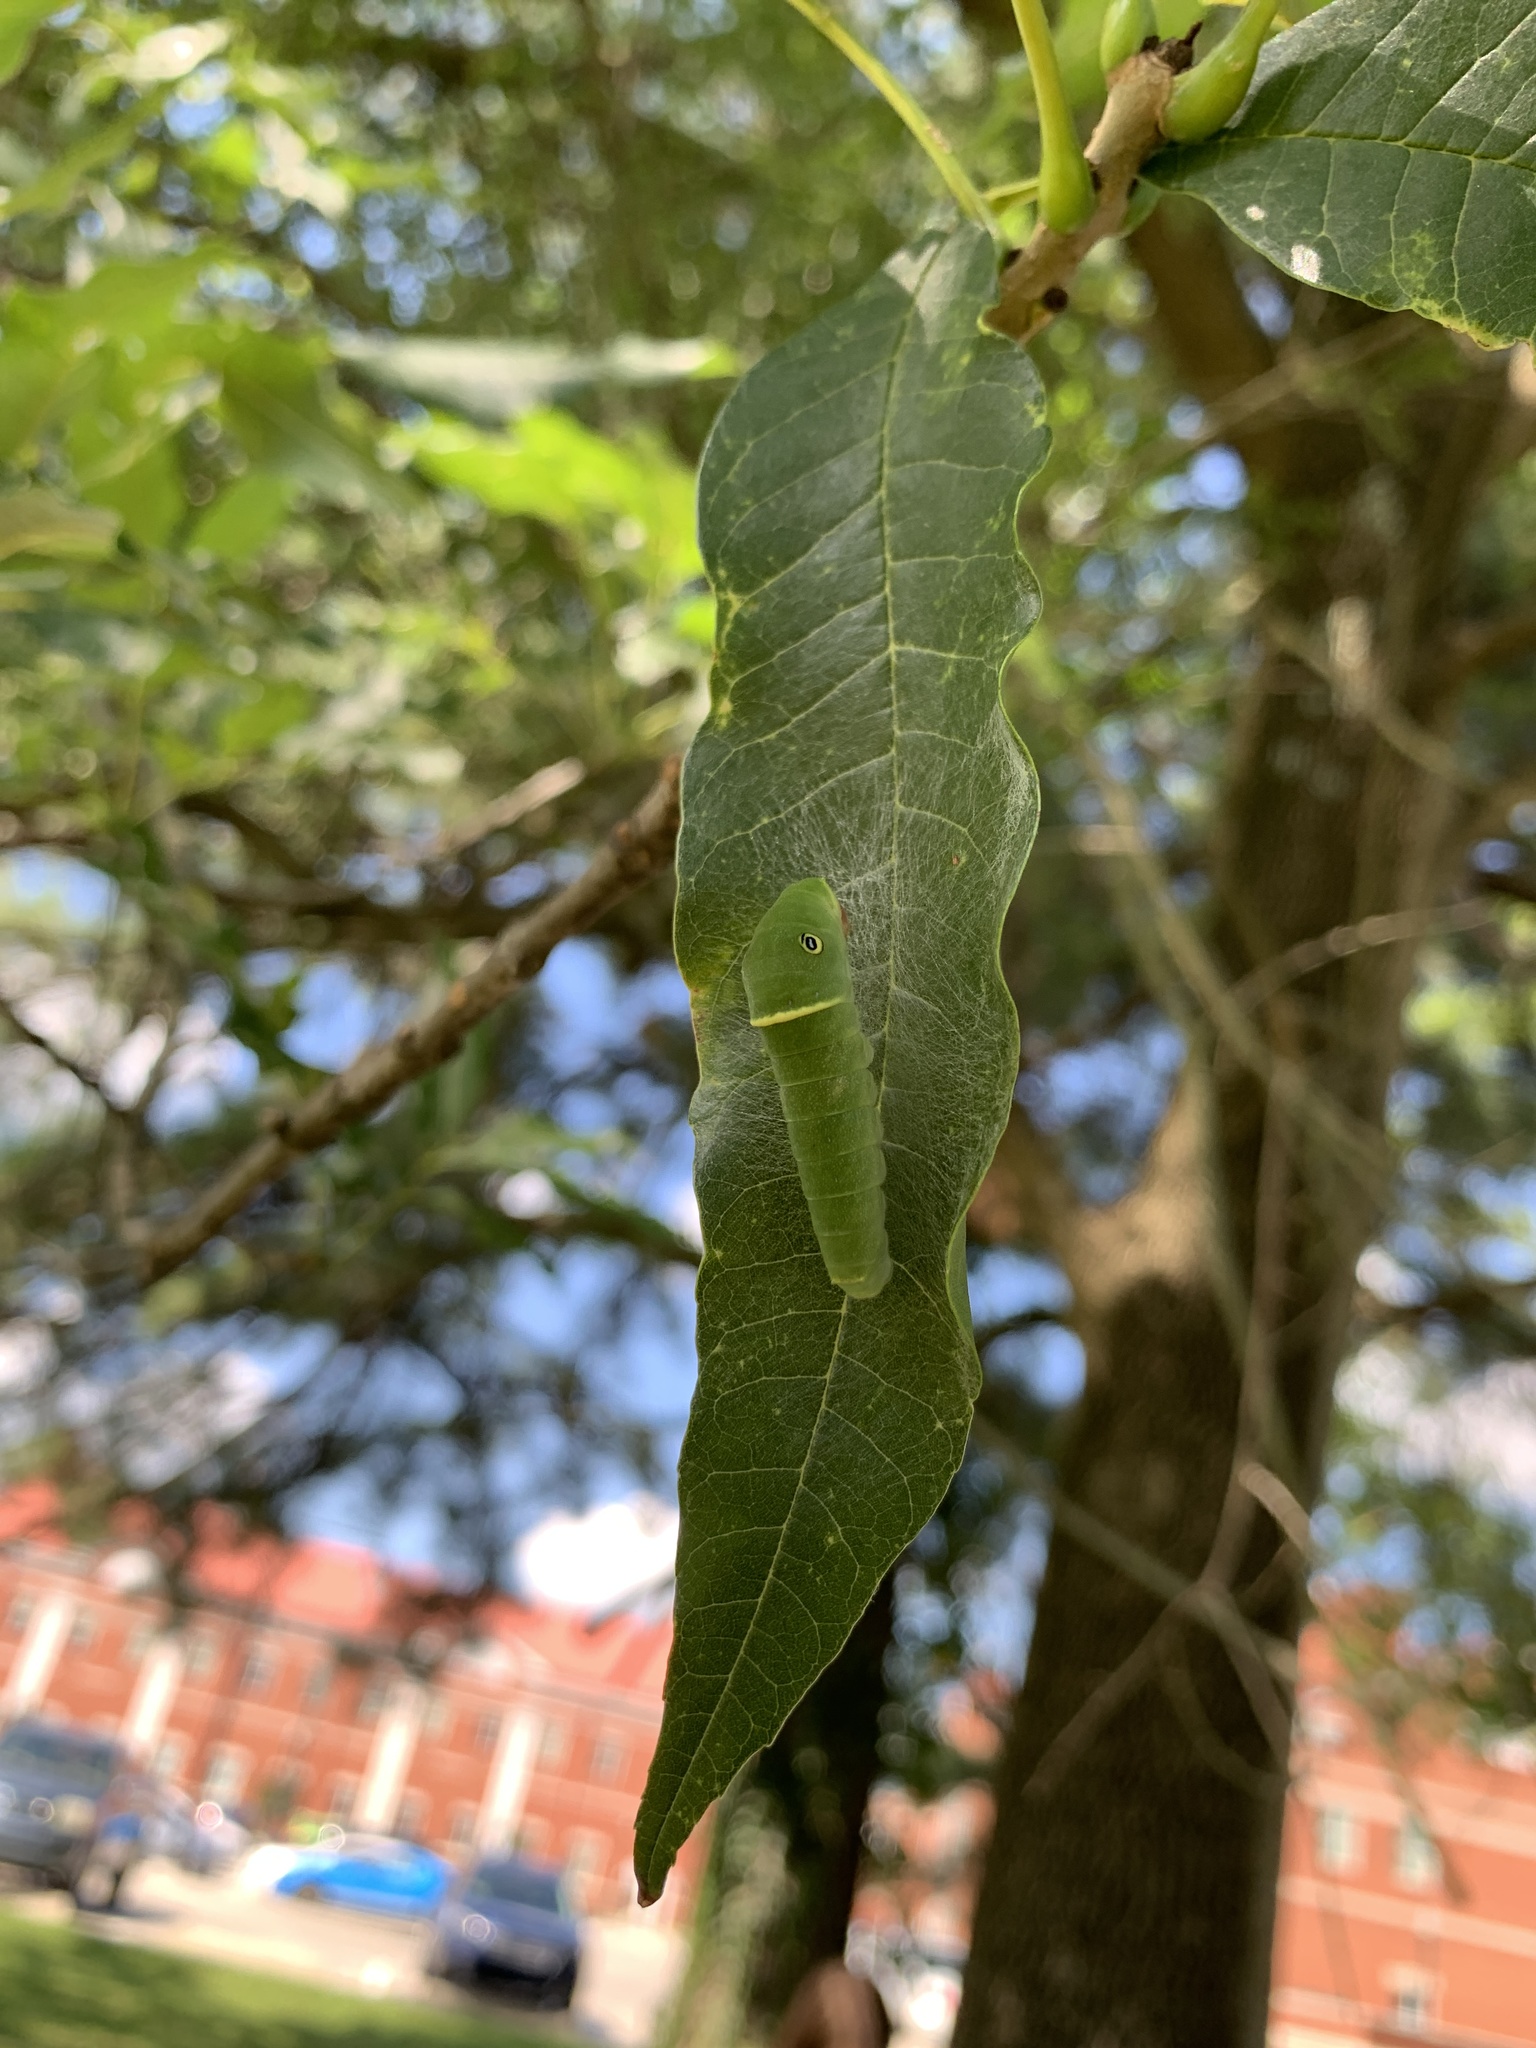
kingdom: Animalia
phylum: Arthropoda
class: Insecta
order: Lepidoptera
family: Papilionidae
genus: Papilio
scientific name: Papilio glaucus
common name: Tiger swallowtail
